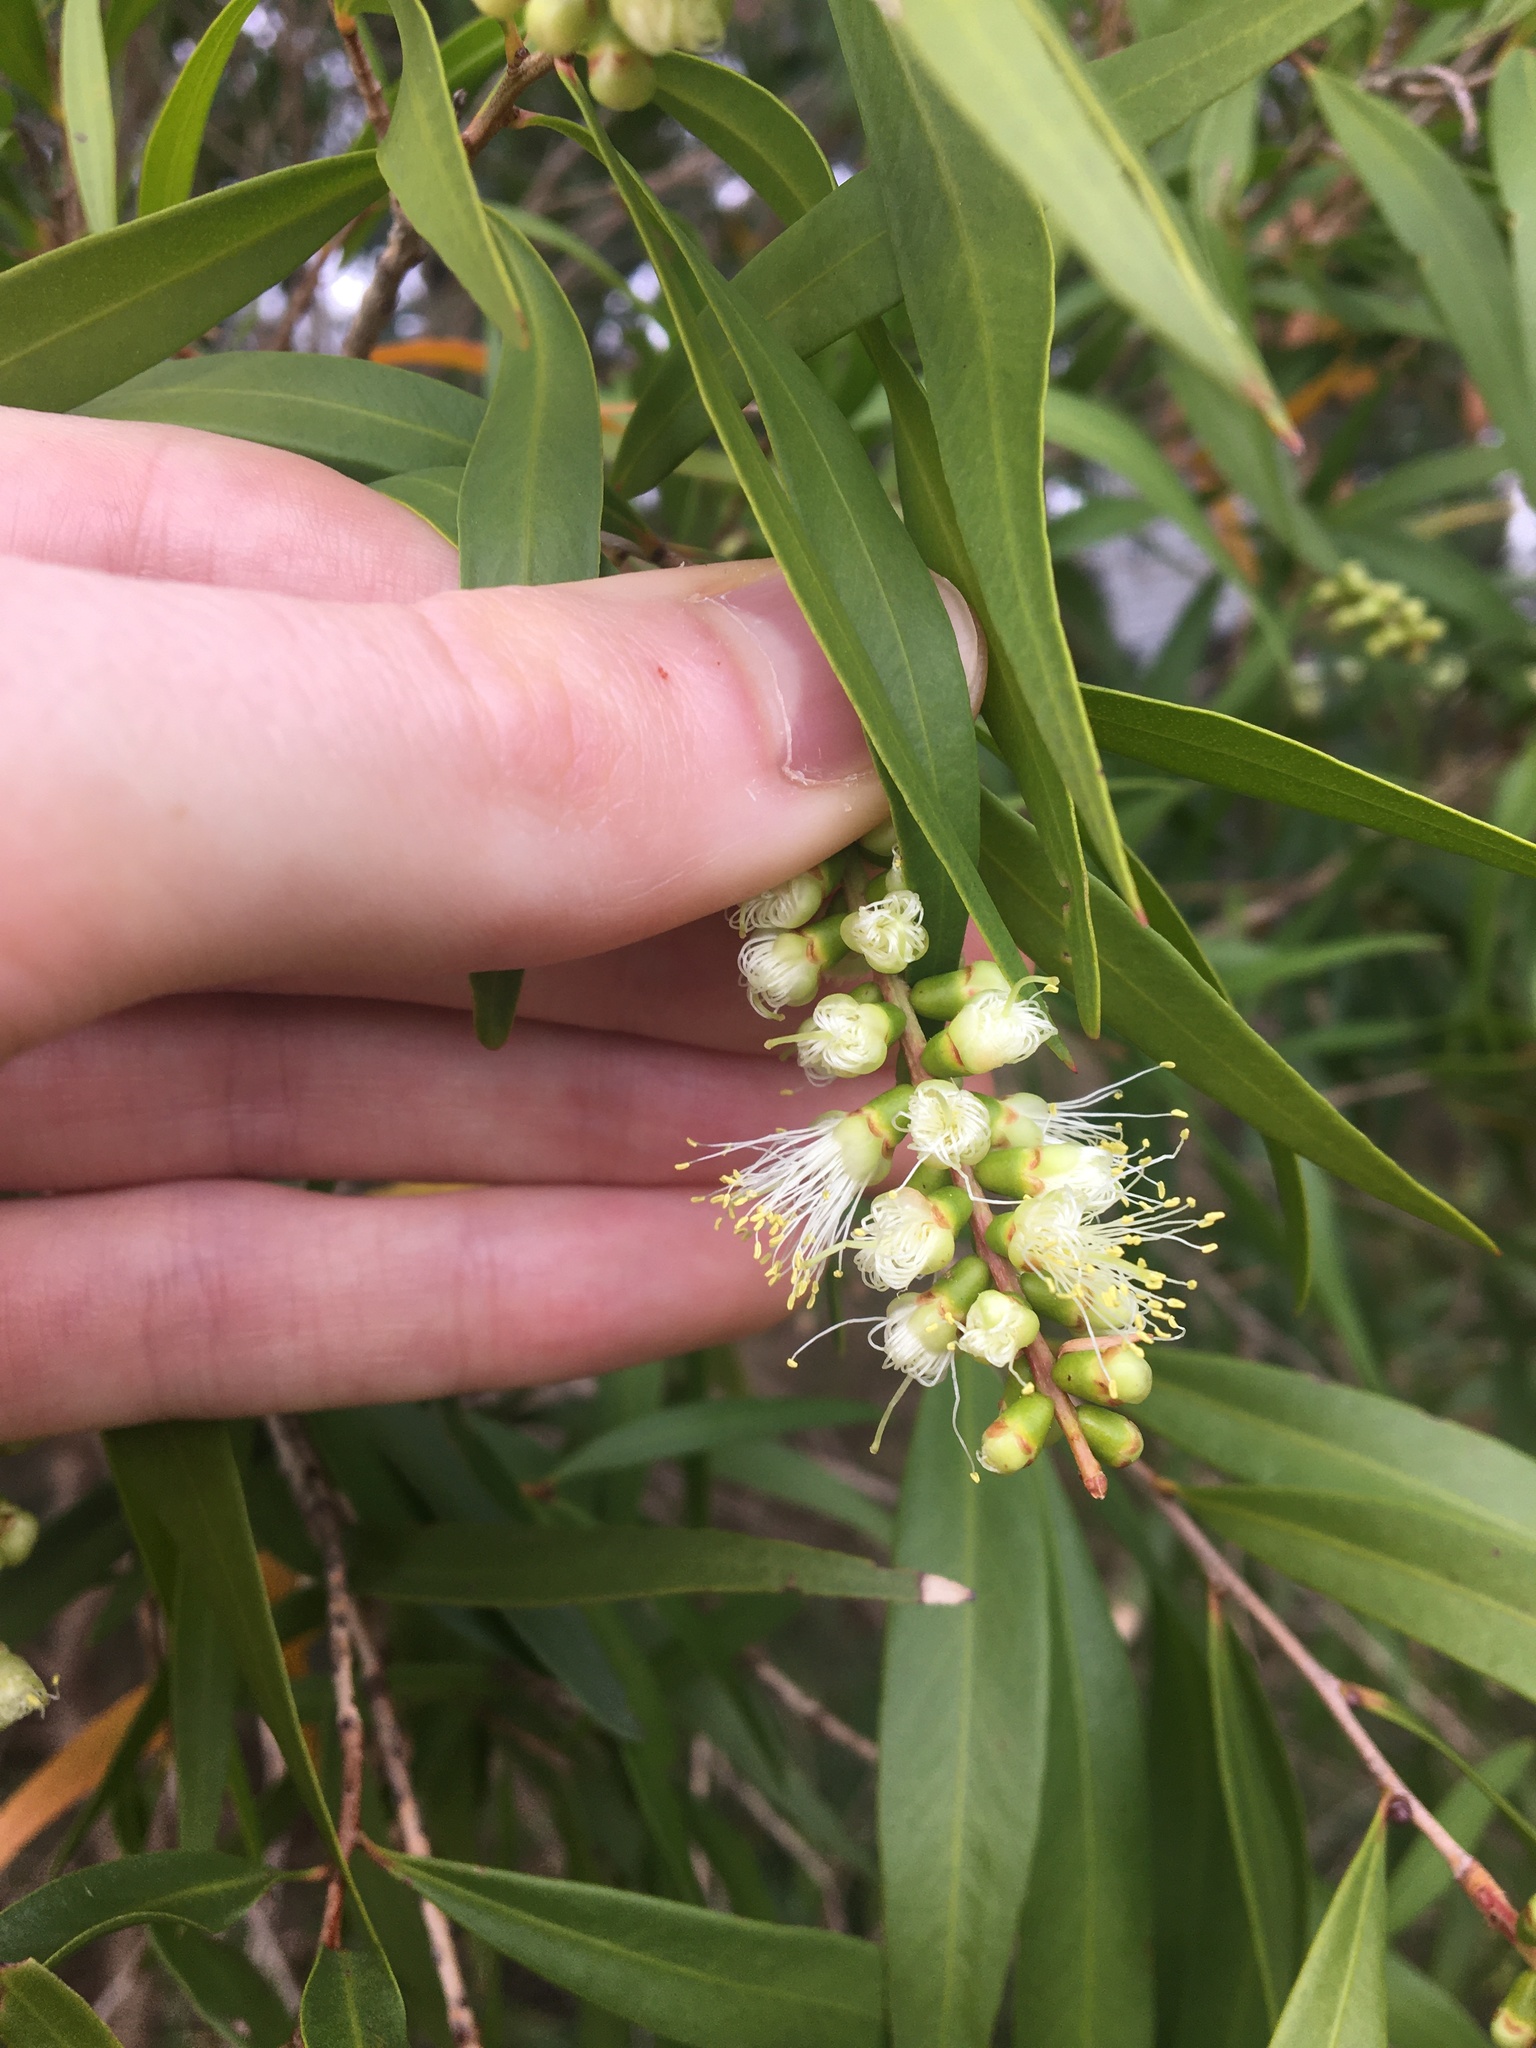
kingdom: Plantae
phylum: Tracheophyta
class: Magnoliopsida
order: Myrtales
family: Myrtaceae
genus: Callistemon
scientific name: Callistemon salignus
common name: White bottlebrush
